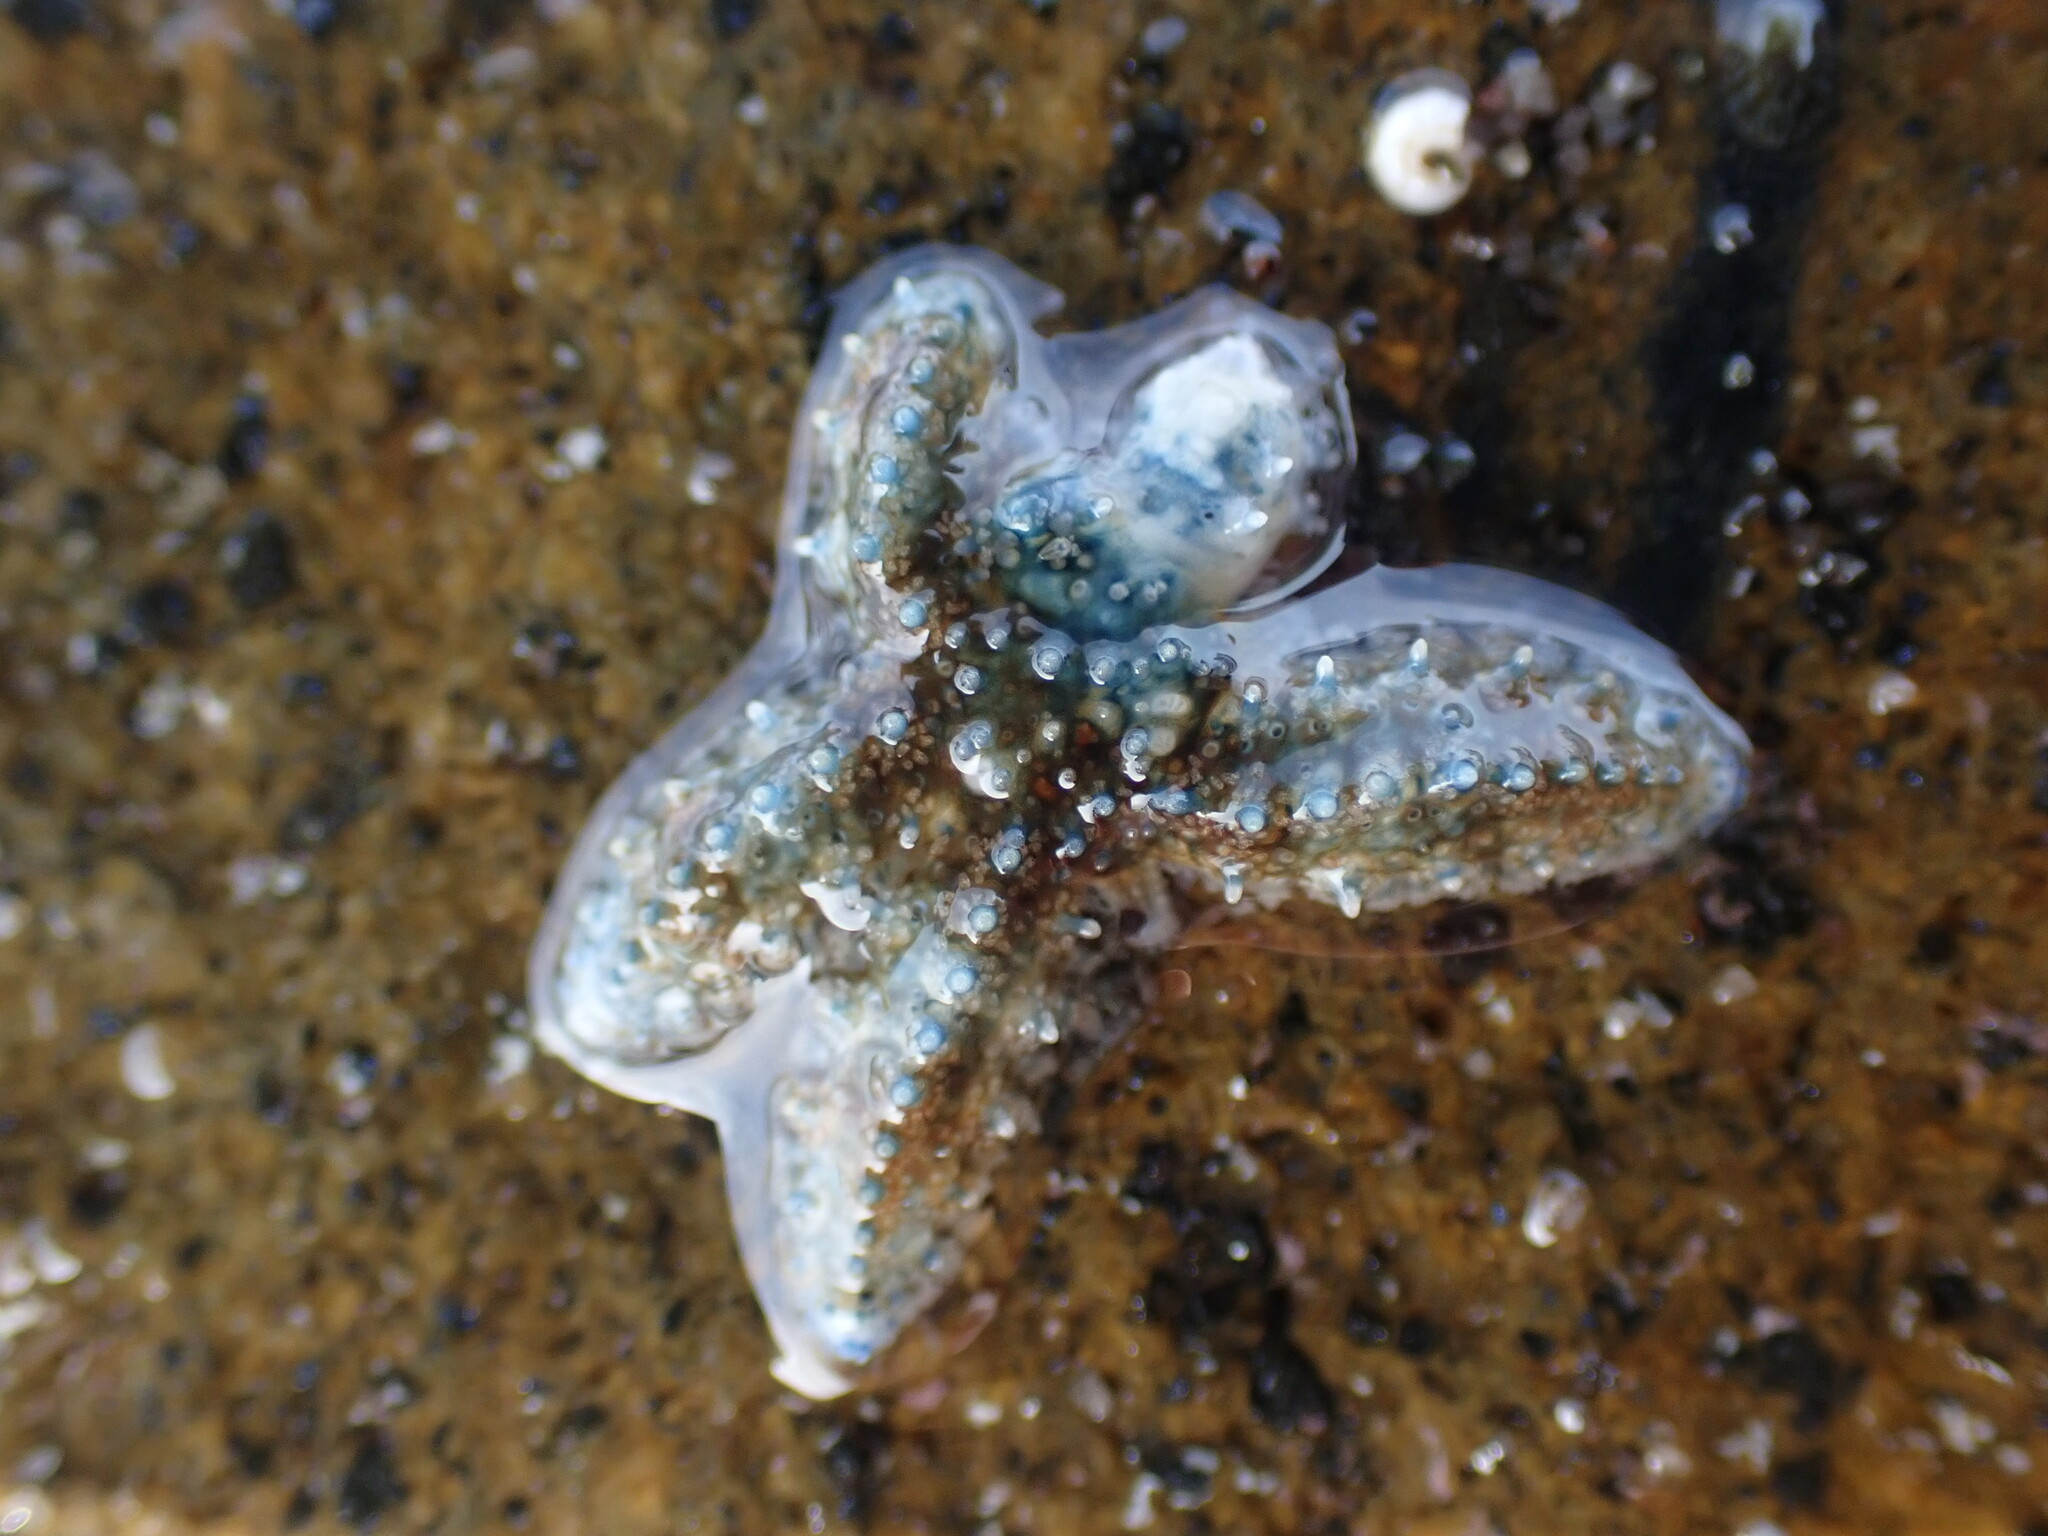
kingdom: Animalia
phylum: Echinodermata
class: Asteroidea
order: Forcipulatida
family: Asteriidae
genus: Coscinasterias
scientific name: Coscinasterias muricata
